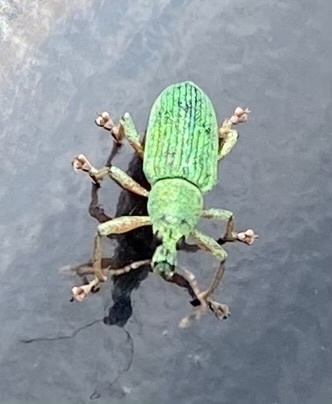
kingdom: Animalia
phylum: Arthropoda
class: Insecta
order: Coleoptera
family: Curculionidae
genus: Polydrusus
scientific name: Polydrusus formosus
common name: Weevil
